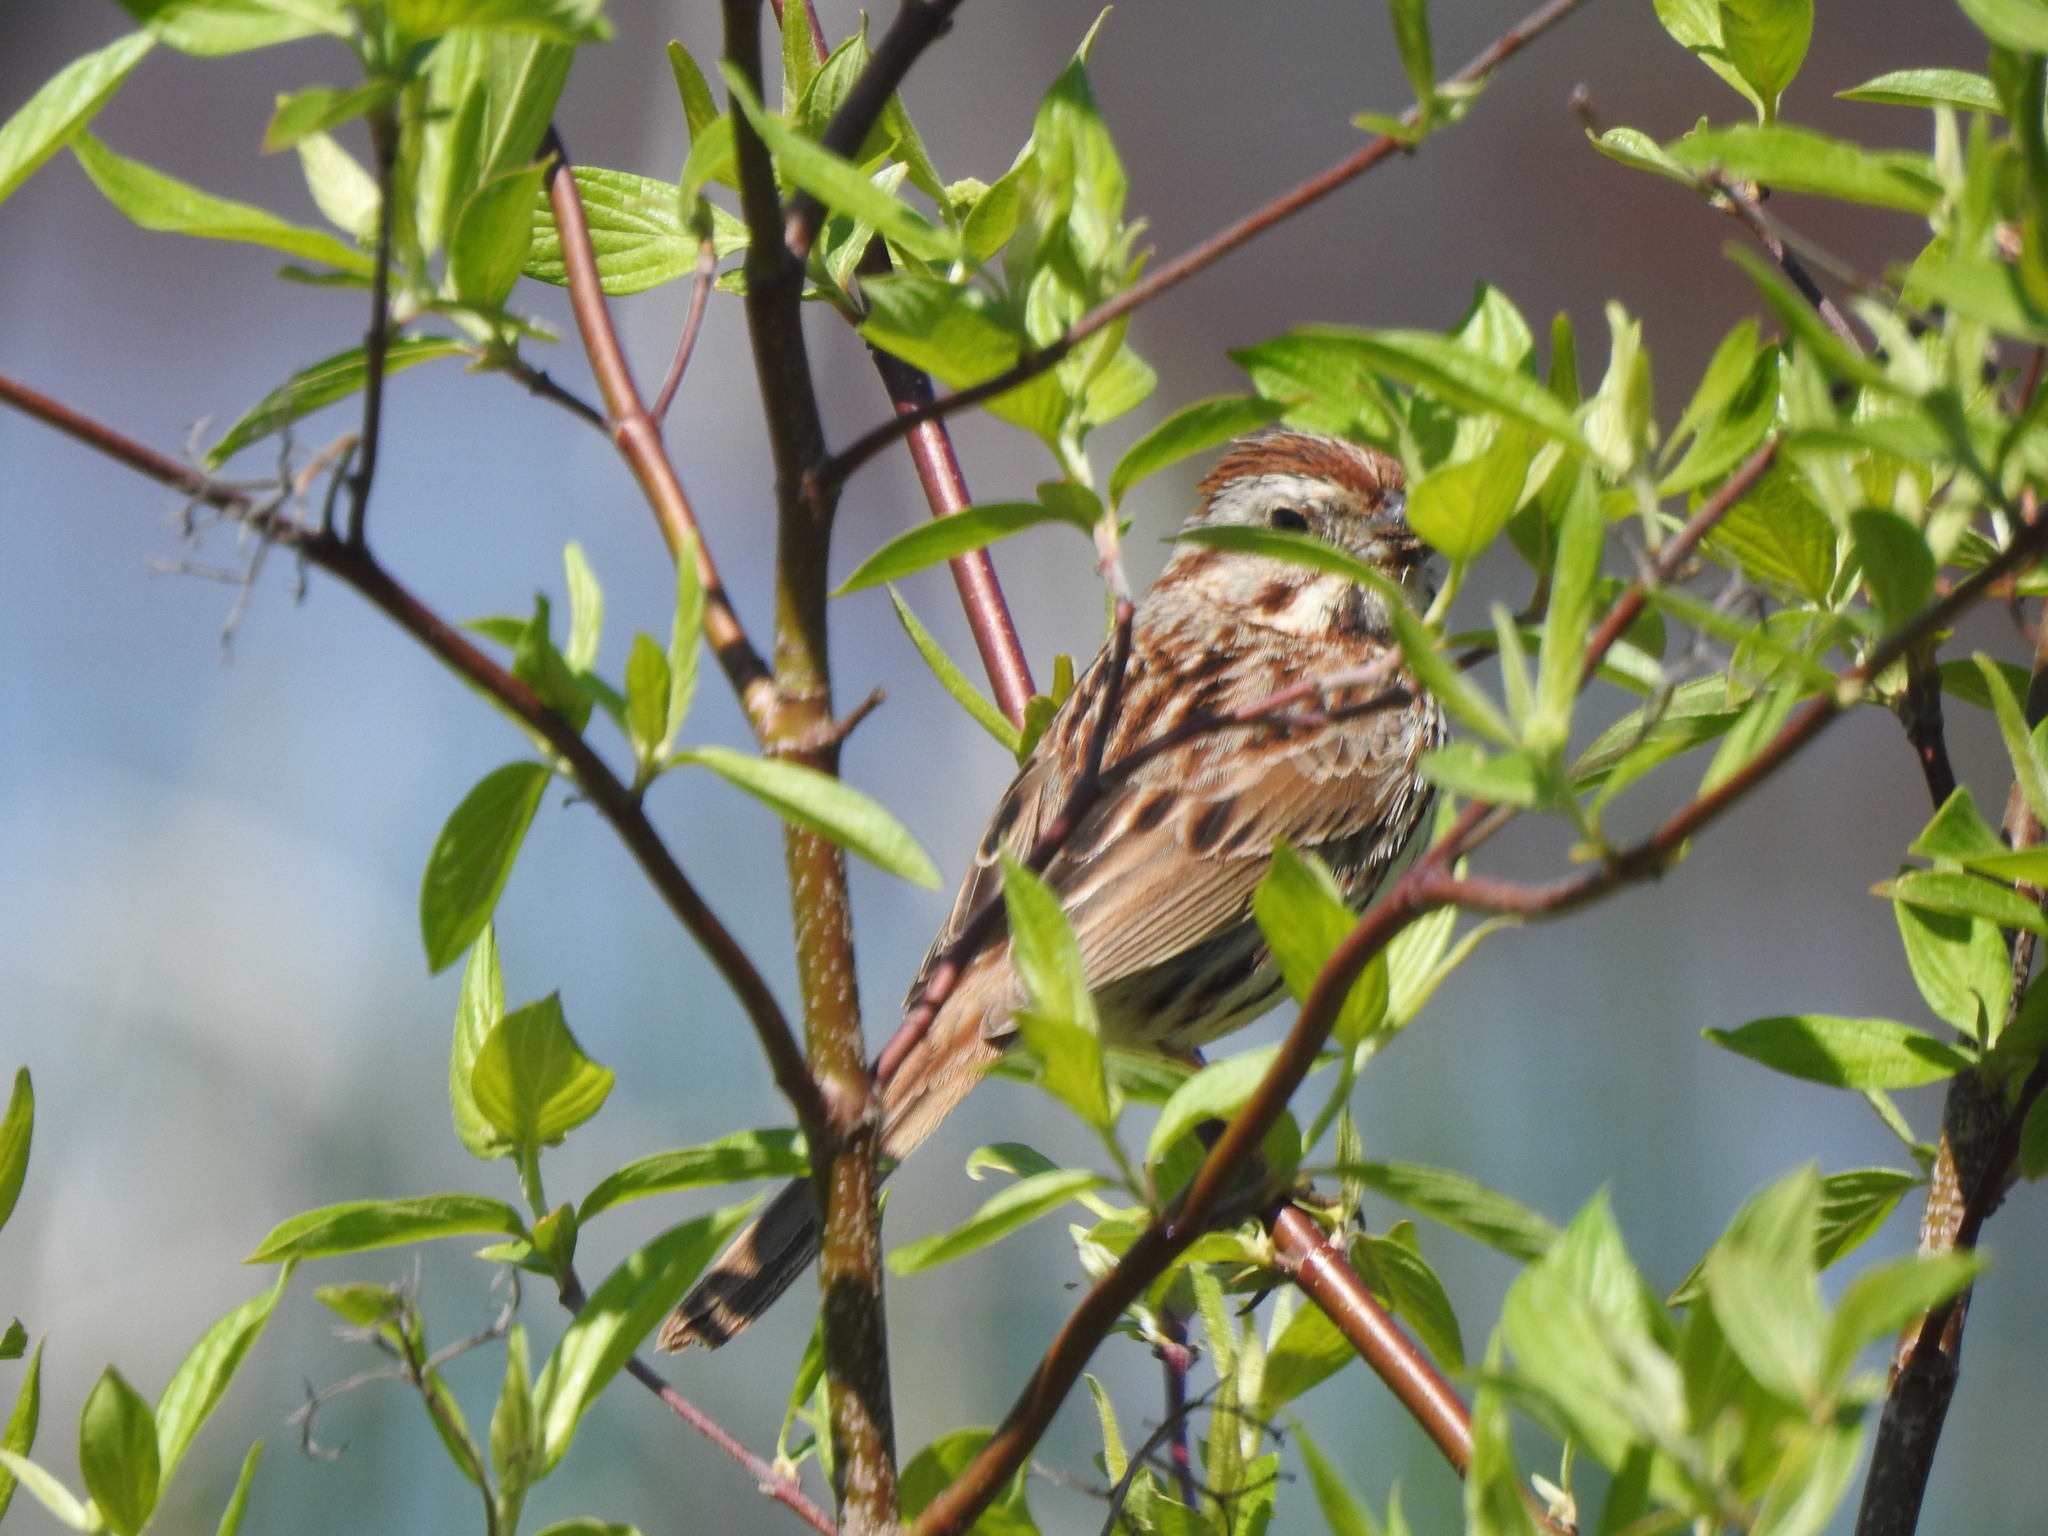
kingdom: Animalia
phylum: Chordata
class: Aves
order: Passeriformes
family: Passerellidae
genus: Melospiza
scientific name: Melospiza melodia
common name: Song sparrow
